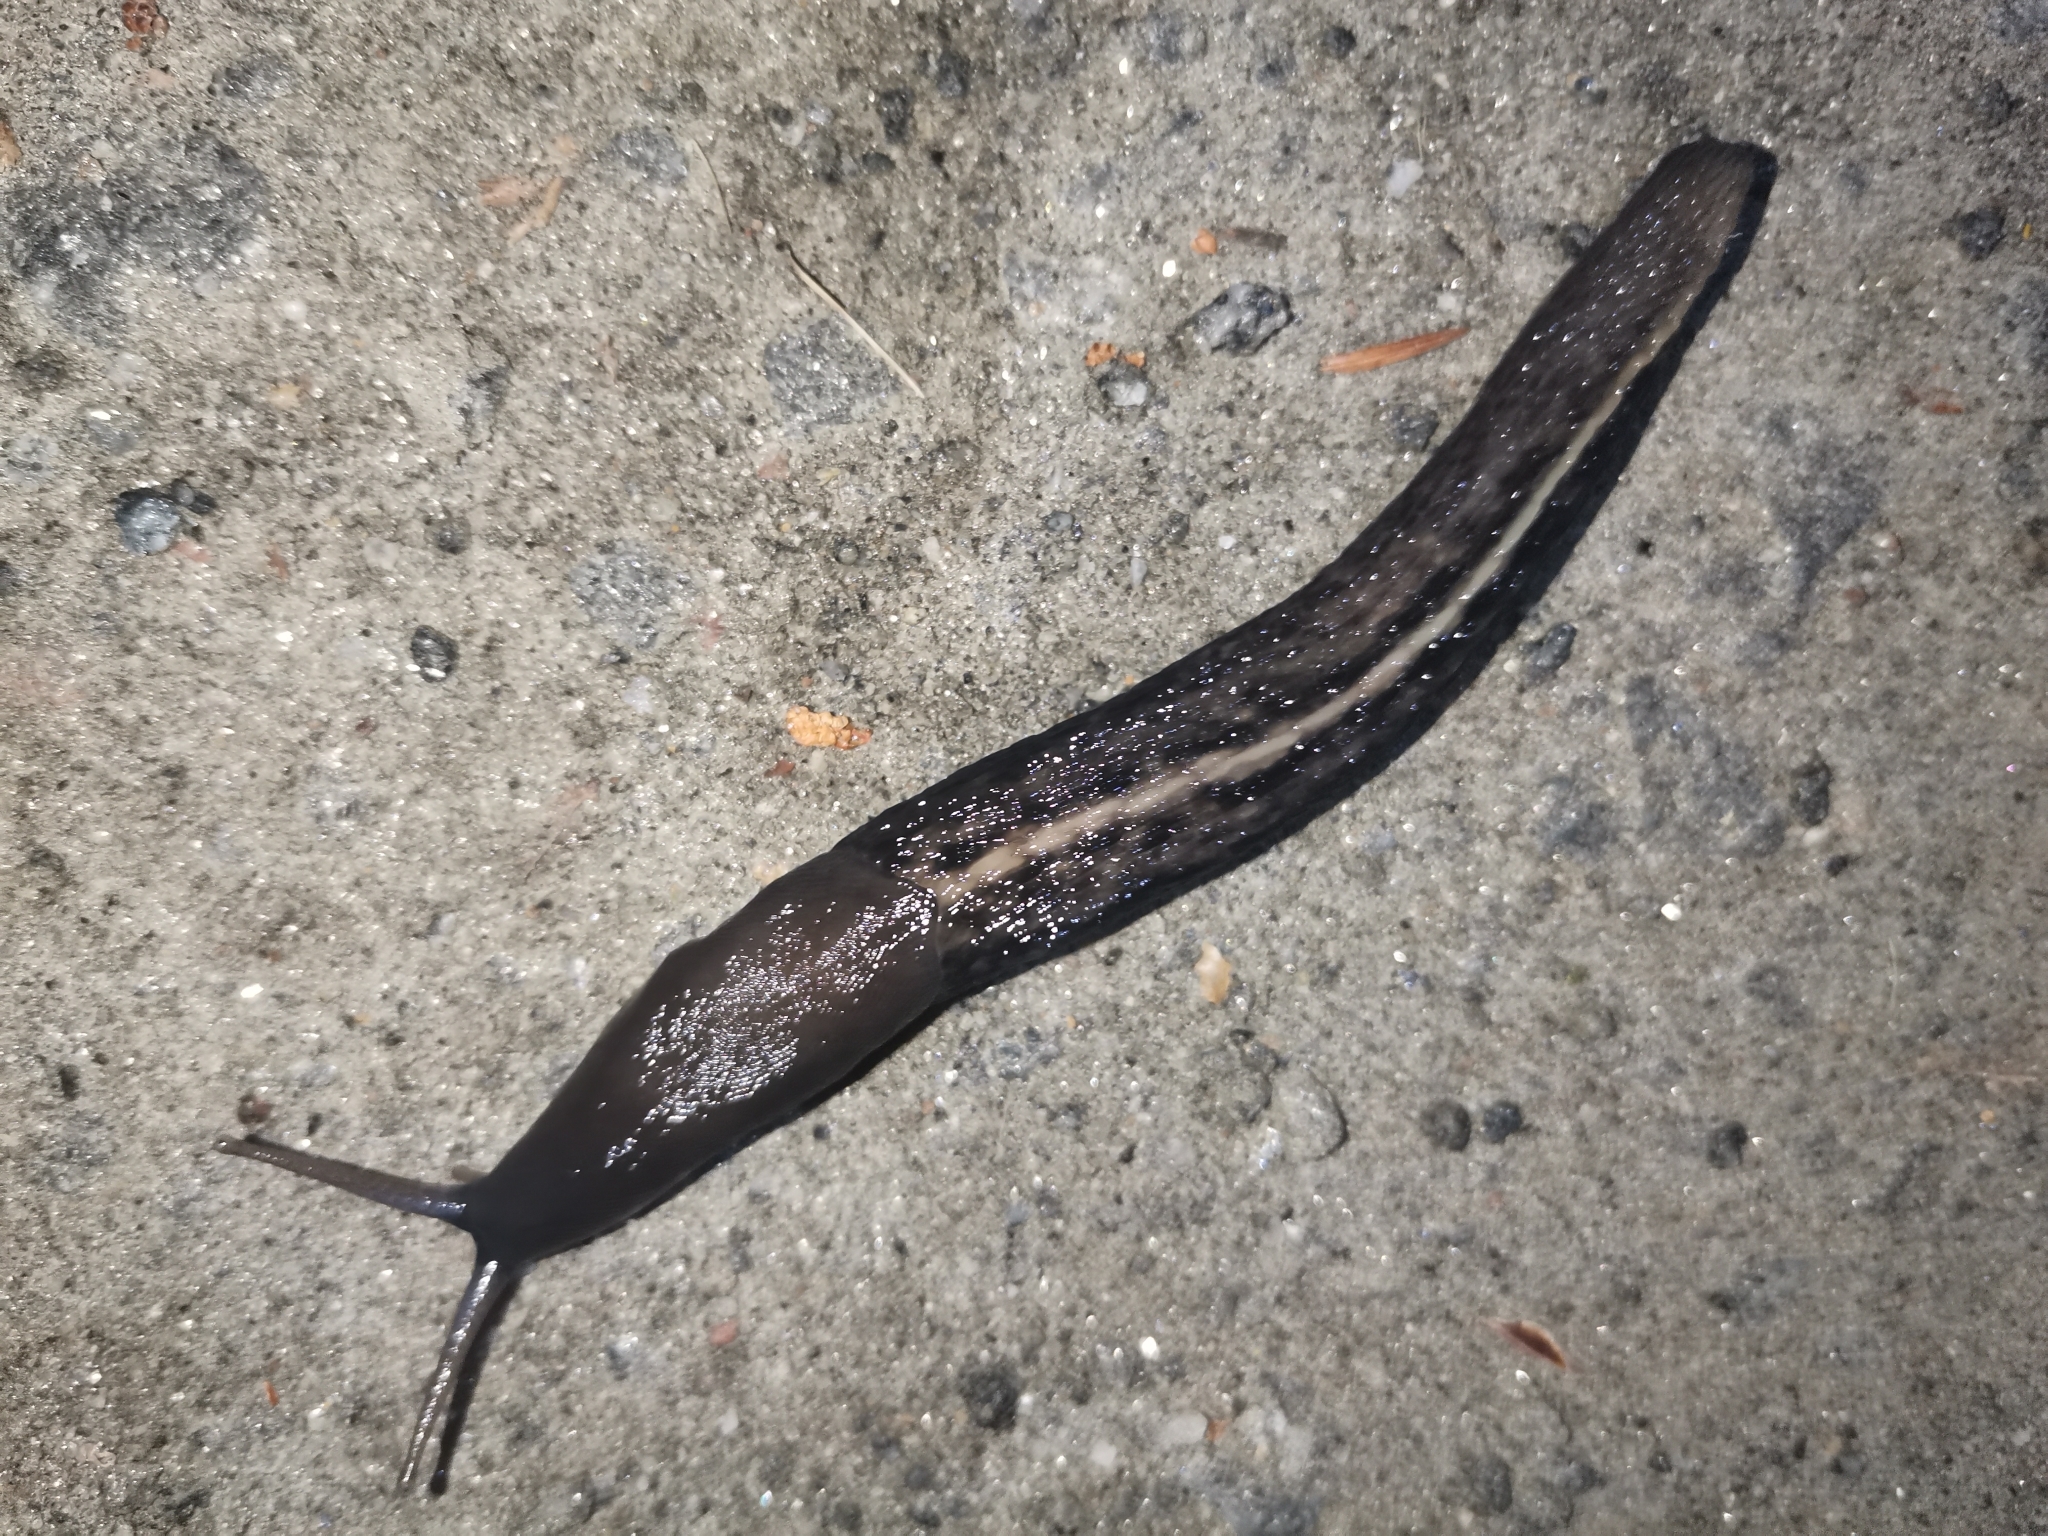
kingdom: Animalia
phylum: Mollusca
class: Gastropoda
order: Stylommatophora
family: Limacidae
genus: Limax
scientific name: Limax cinereoniger
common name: Ash-black slug
